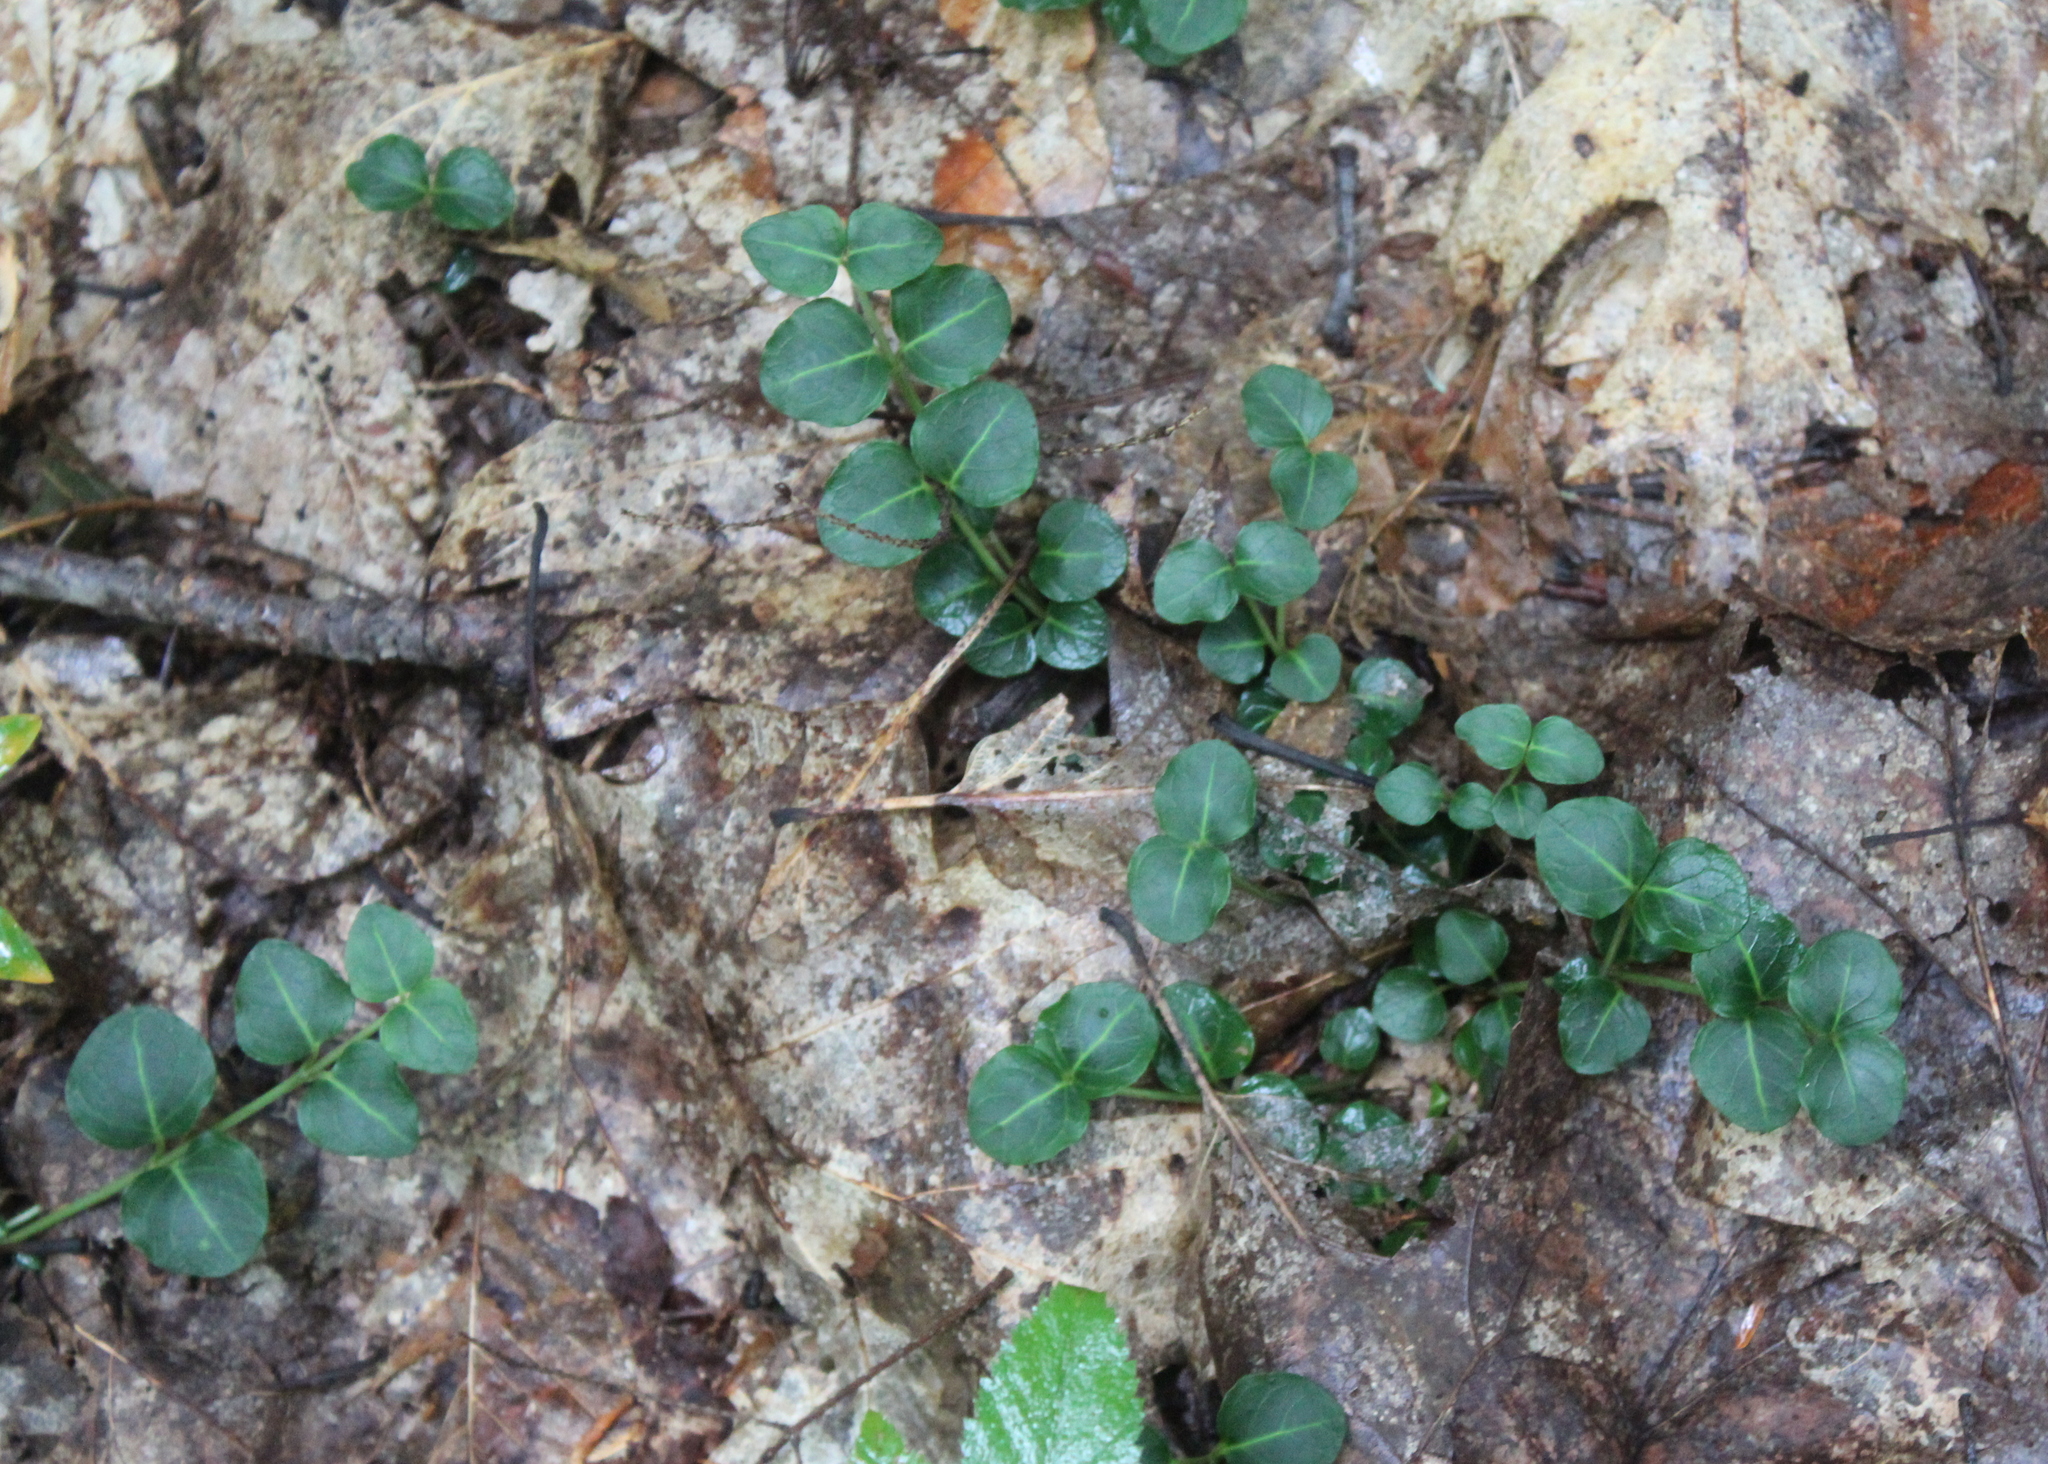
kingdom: Plantae
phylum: Tracheophyta
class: Magnoliopsida
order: Gentianales
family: Rubiaceae
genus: Mitchella
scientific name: Mitchella repens
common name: Partridge-berry
